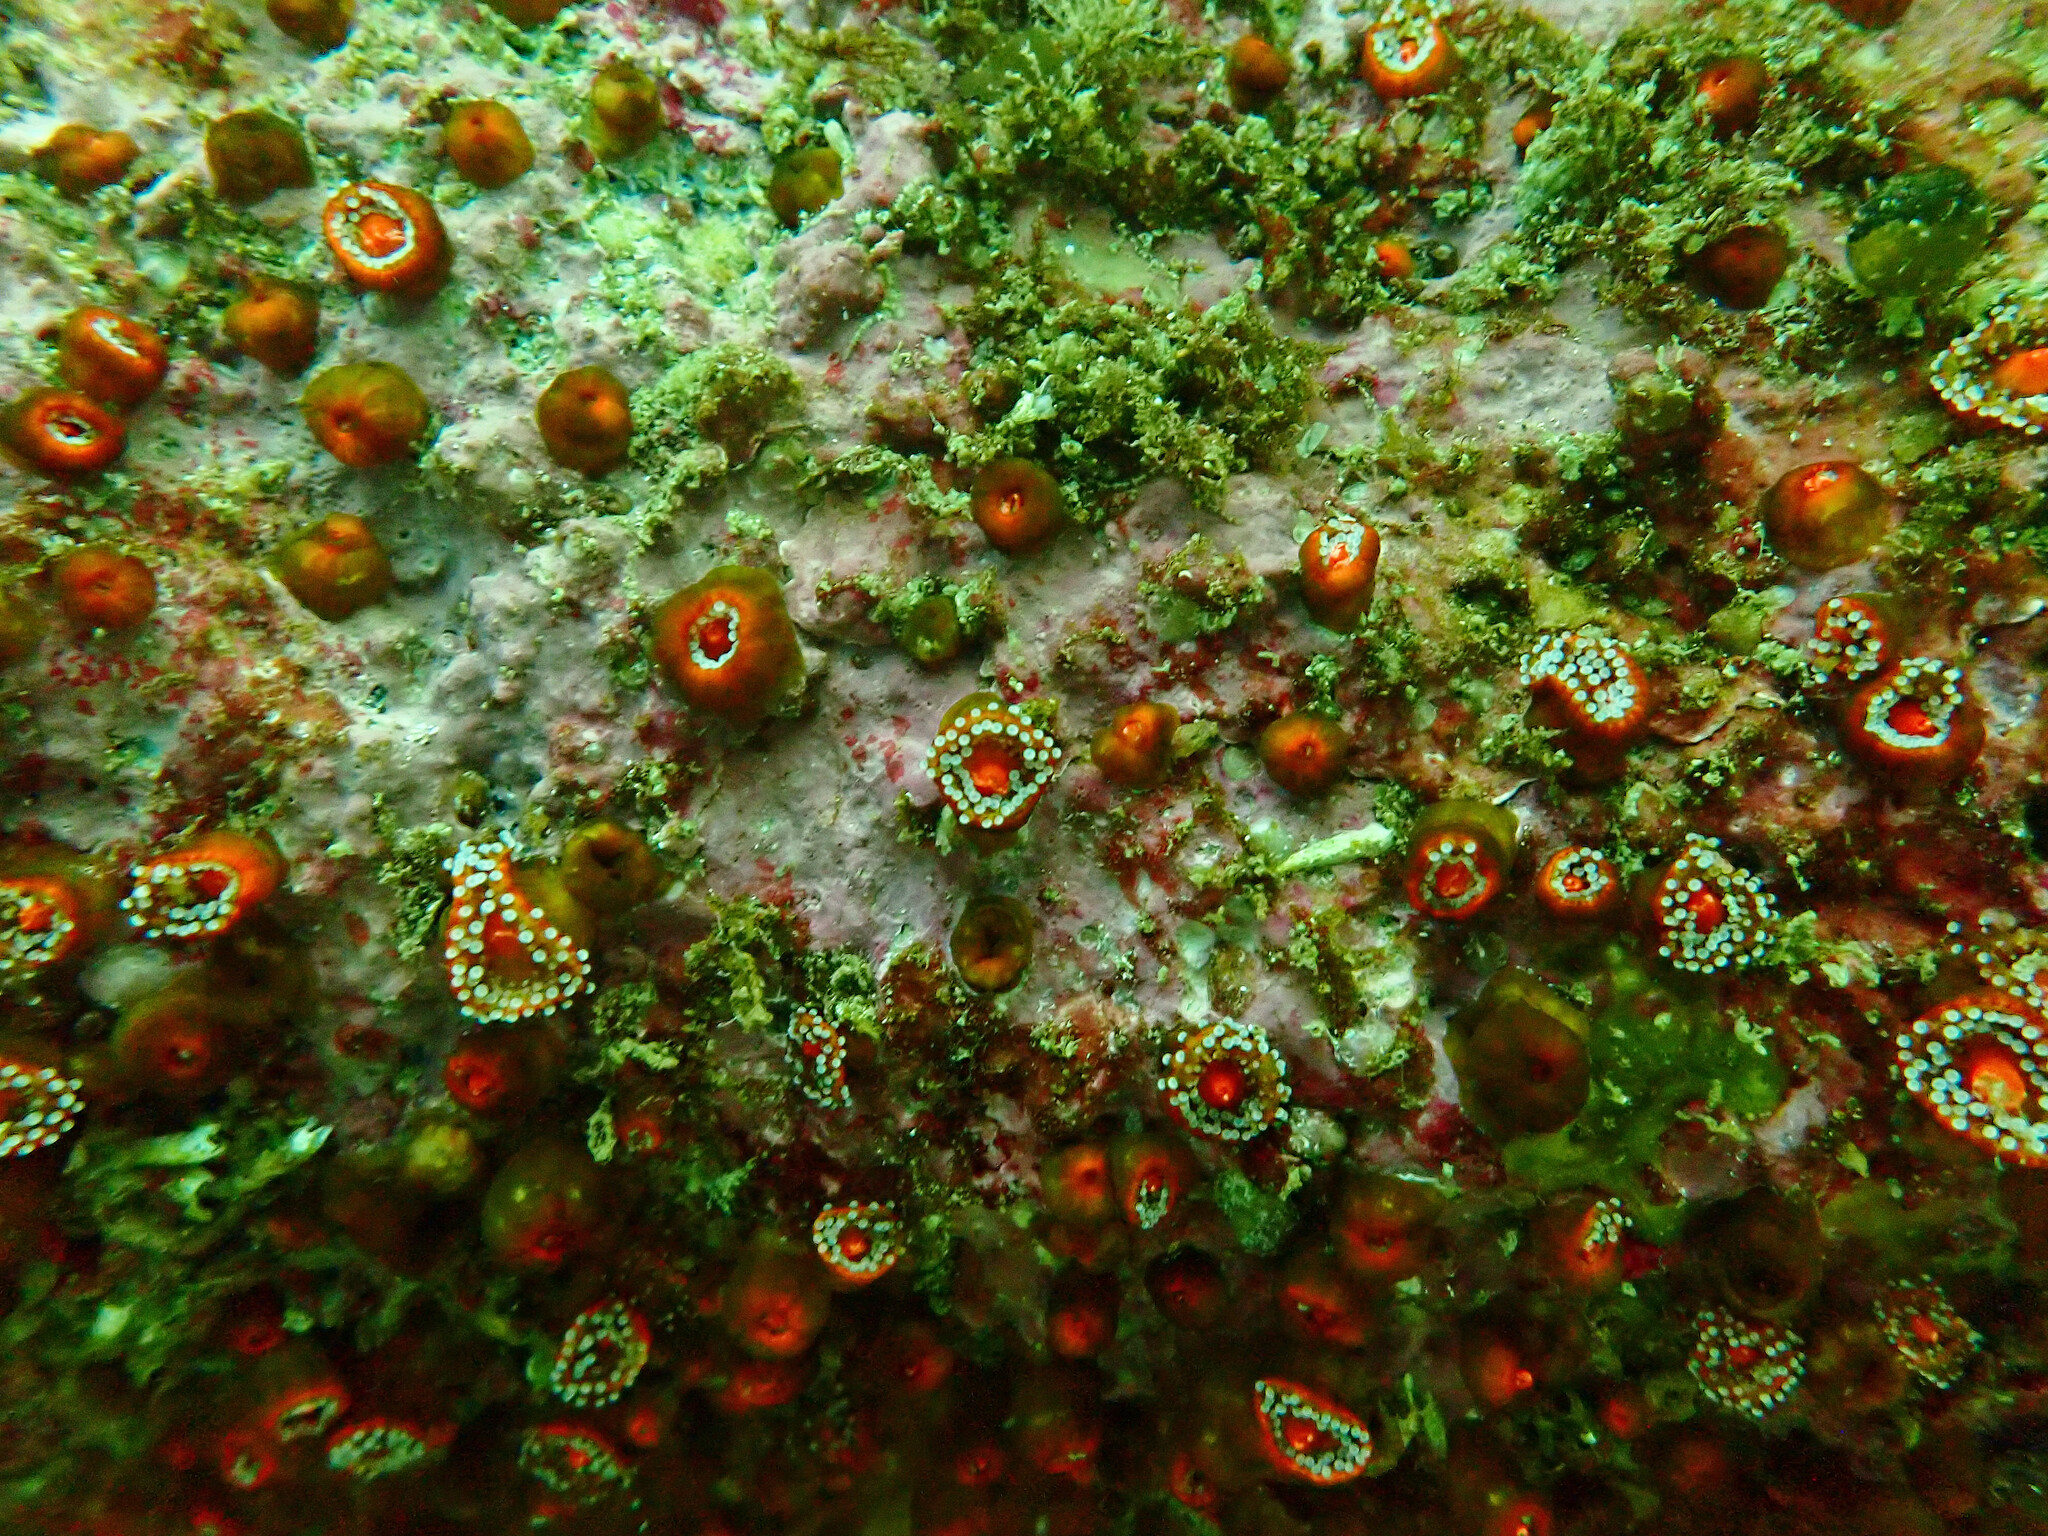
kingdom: Animalia
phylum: Cnidaria
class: Anthozoa
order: Corallimorpharia
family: Corallimorphidae
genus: Corynactis
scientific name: Corynactis viridis
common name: Jewel anemone
